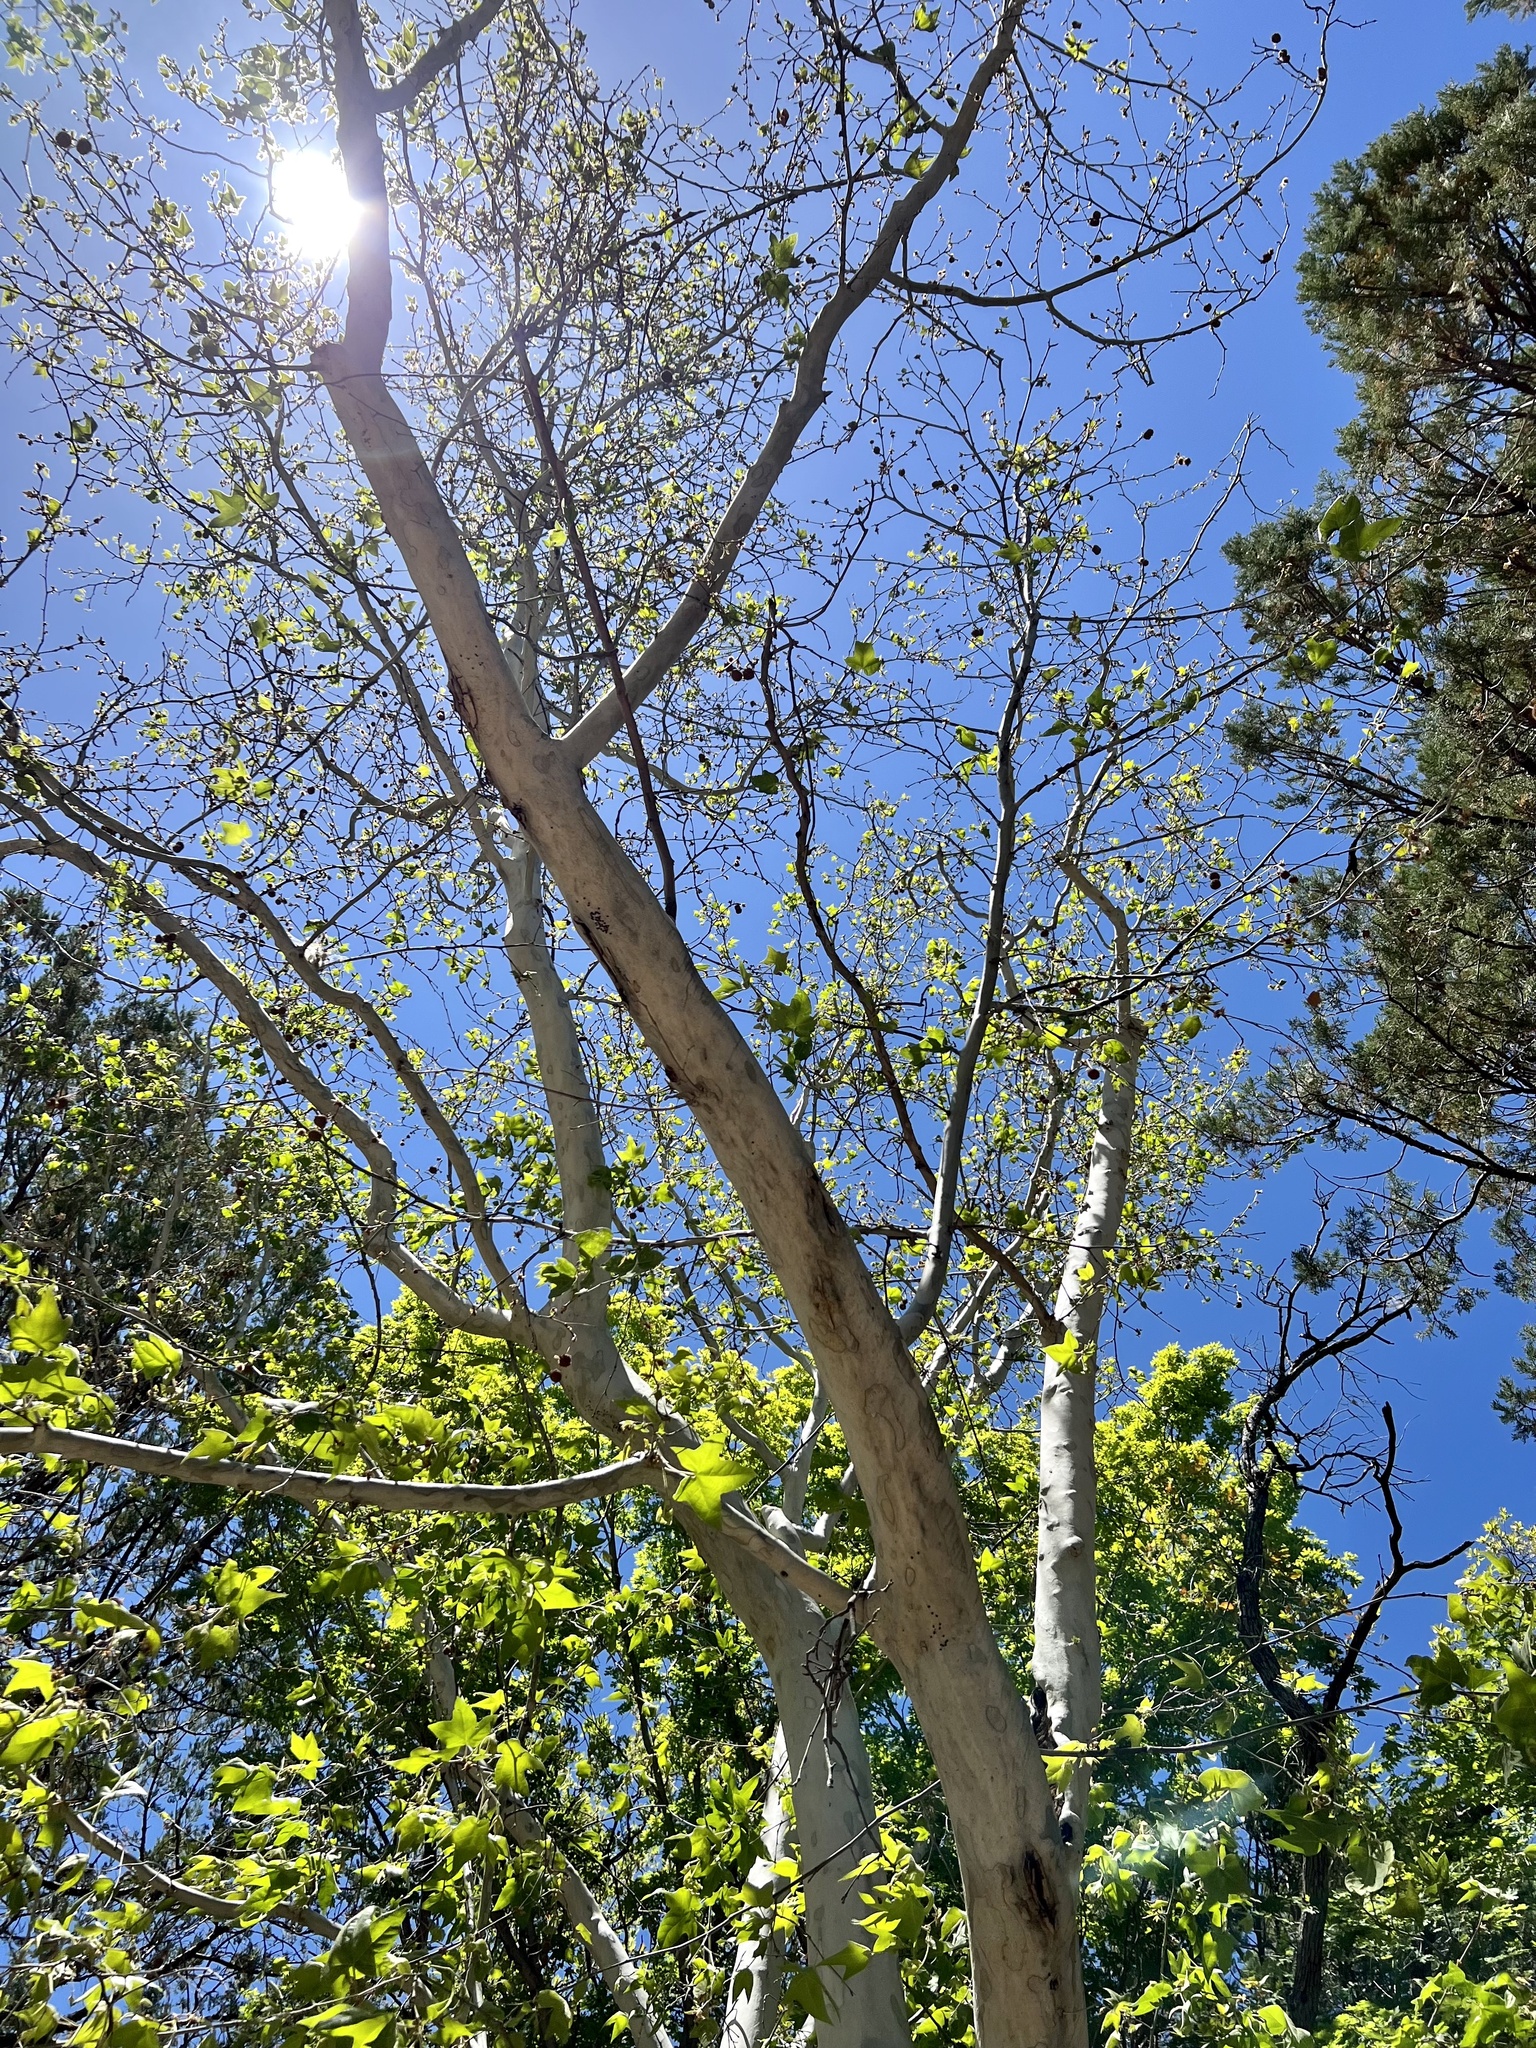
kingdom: Plantae
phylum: Tracheophyta
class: Magnoliopsida
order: Proteales
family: Platanaceae
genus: Platanus
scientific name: Platanus wrightii
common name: Arizona sycamore
